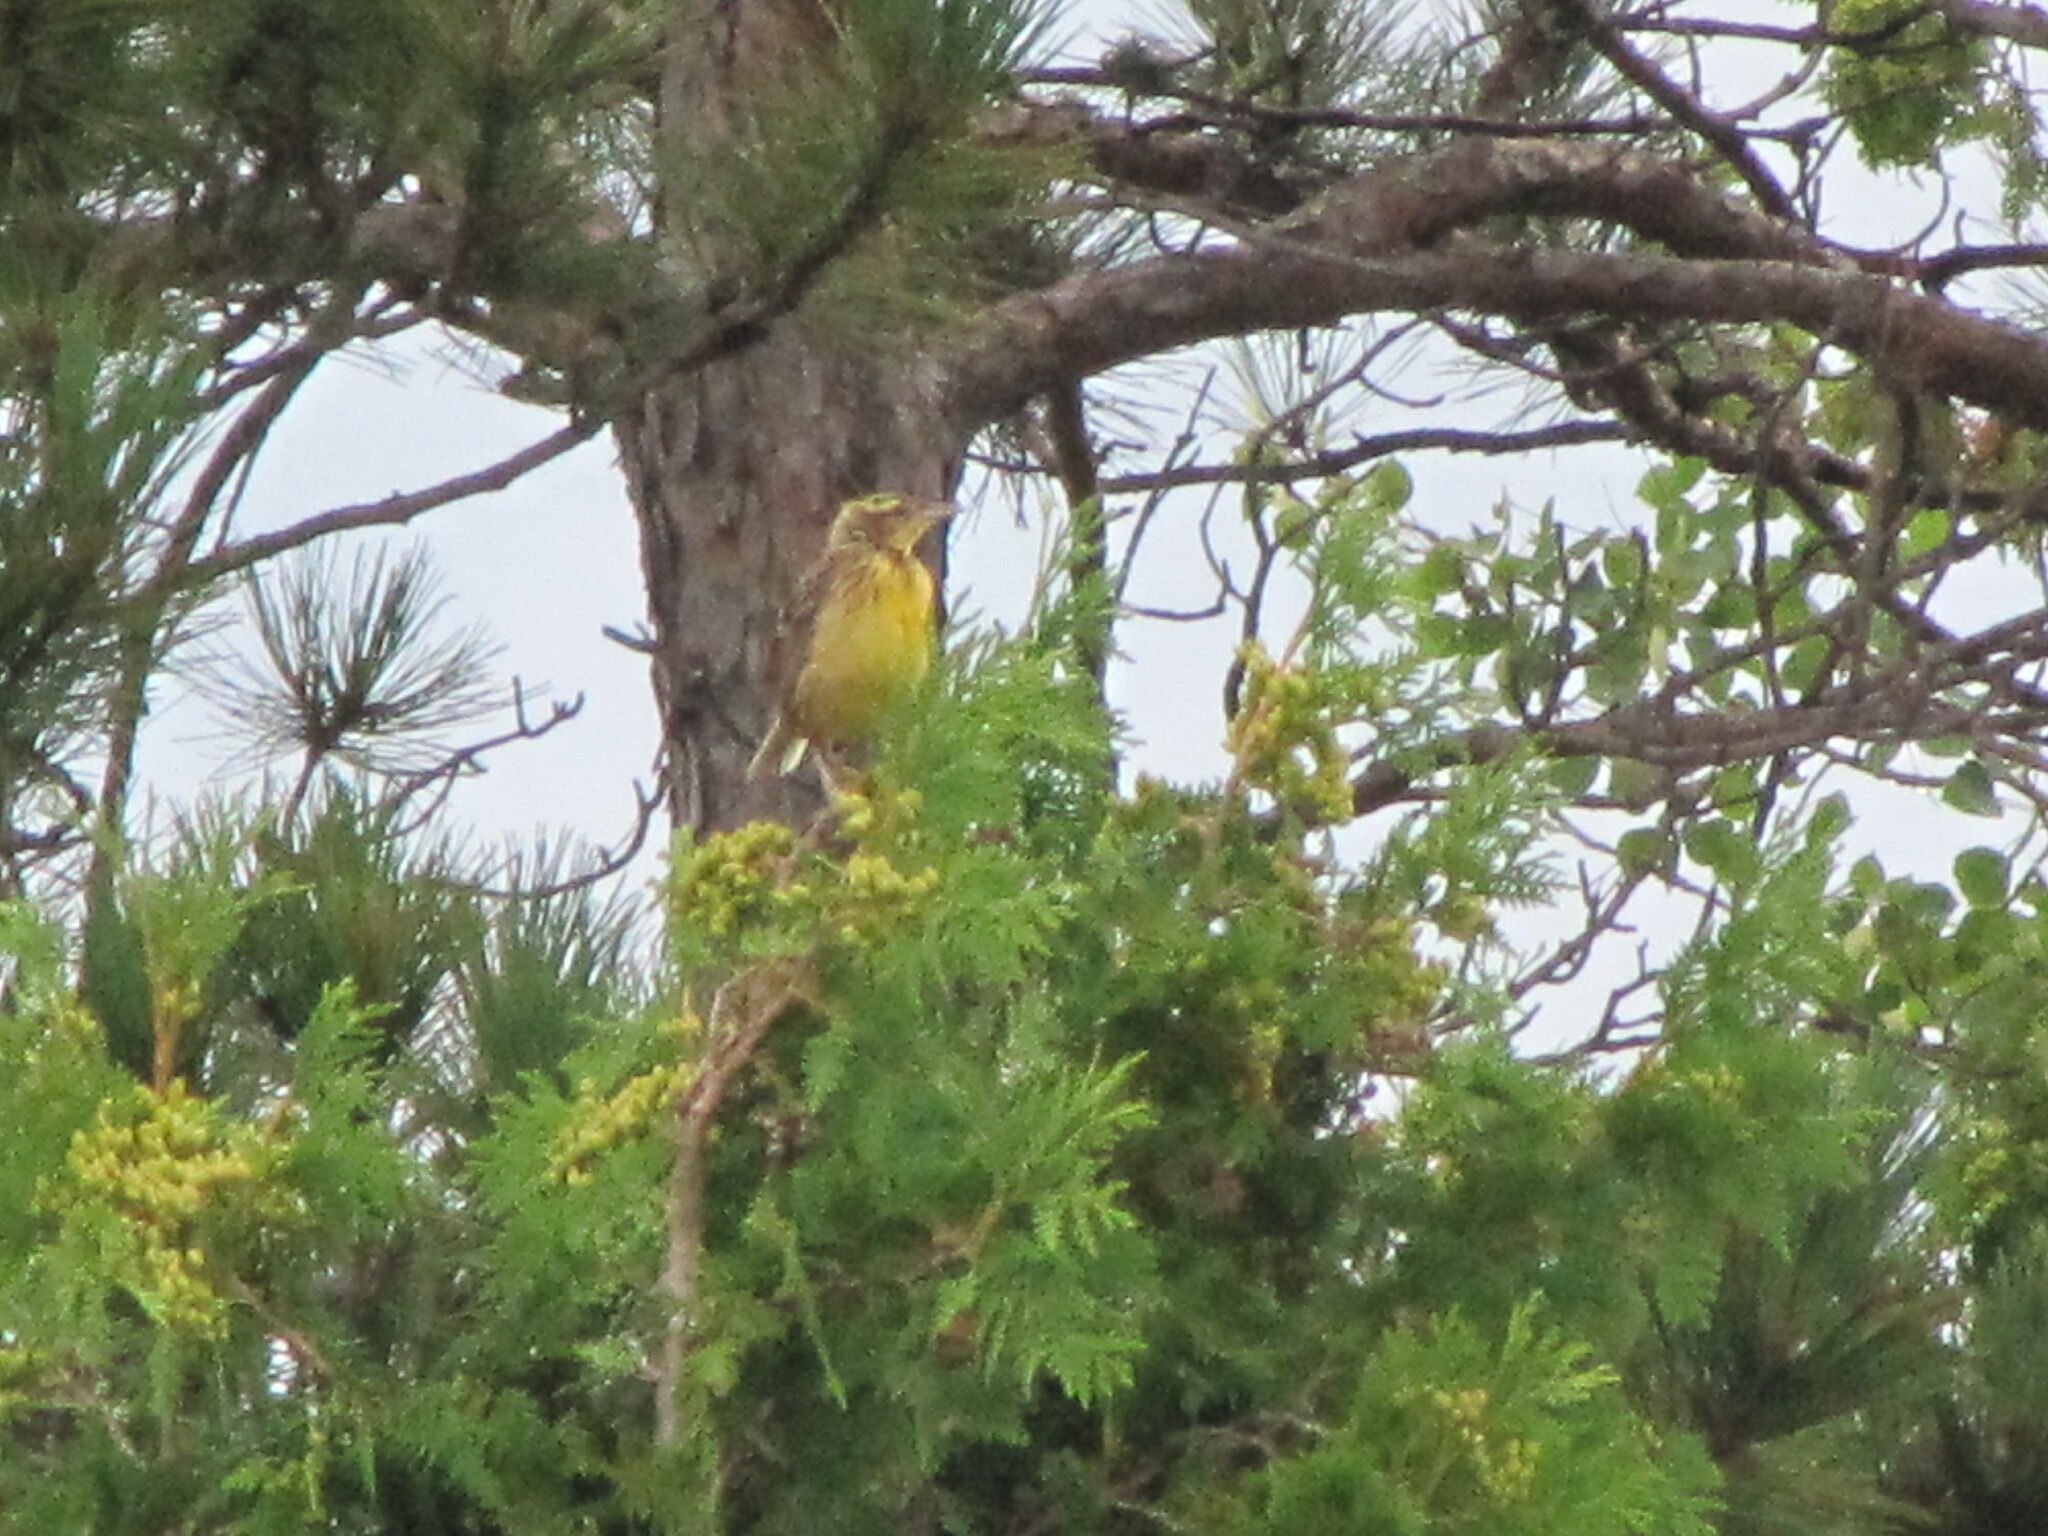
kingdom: Animalia
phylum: Chordata
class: Aves
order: Passeriformes
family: Icteridae
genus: Sturnella
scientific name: Sturnella magna
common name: Eastern meadowlark
